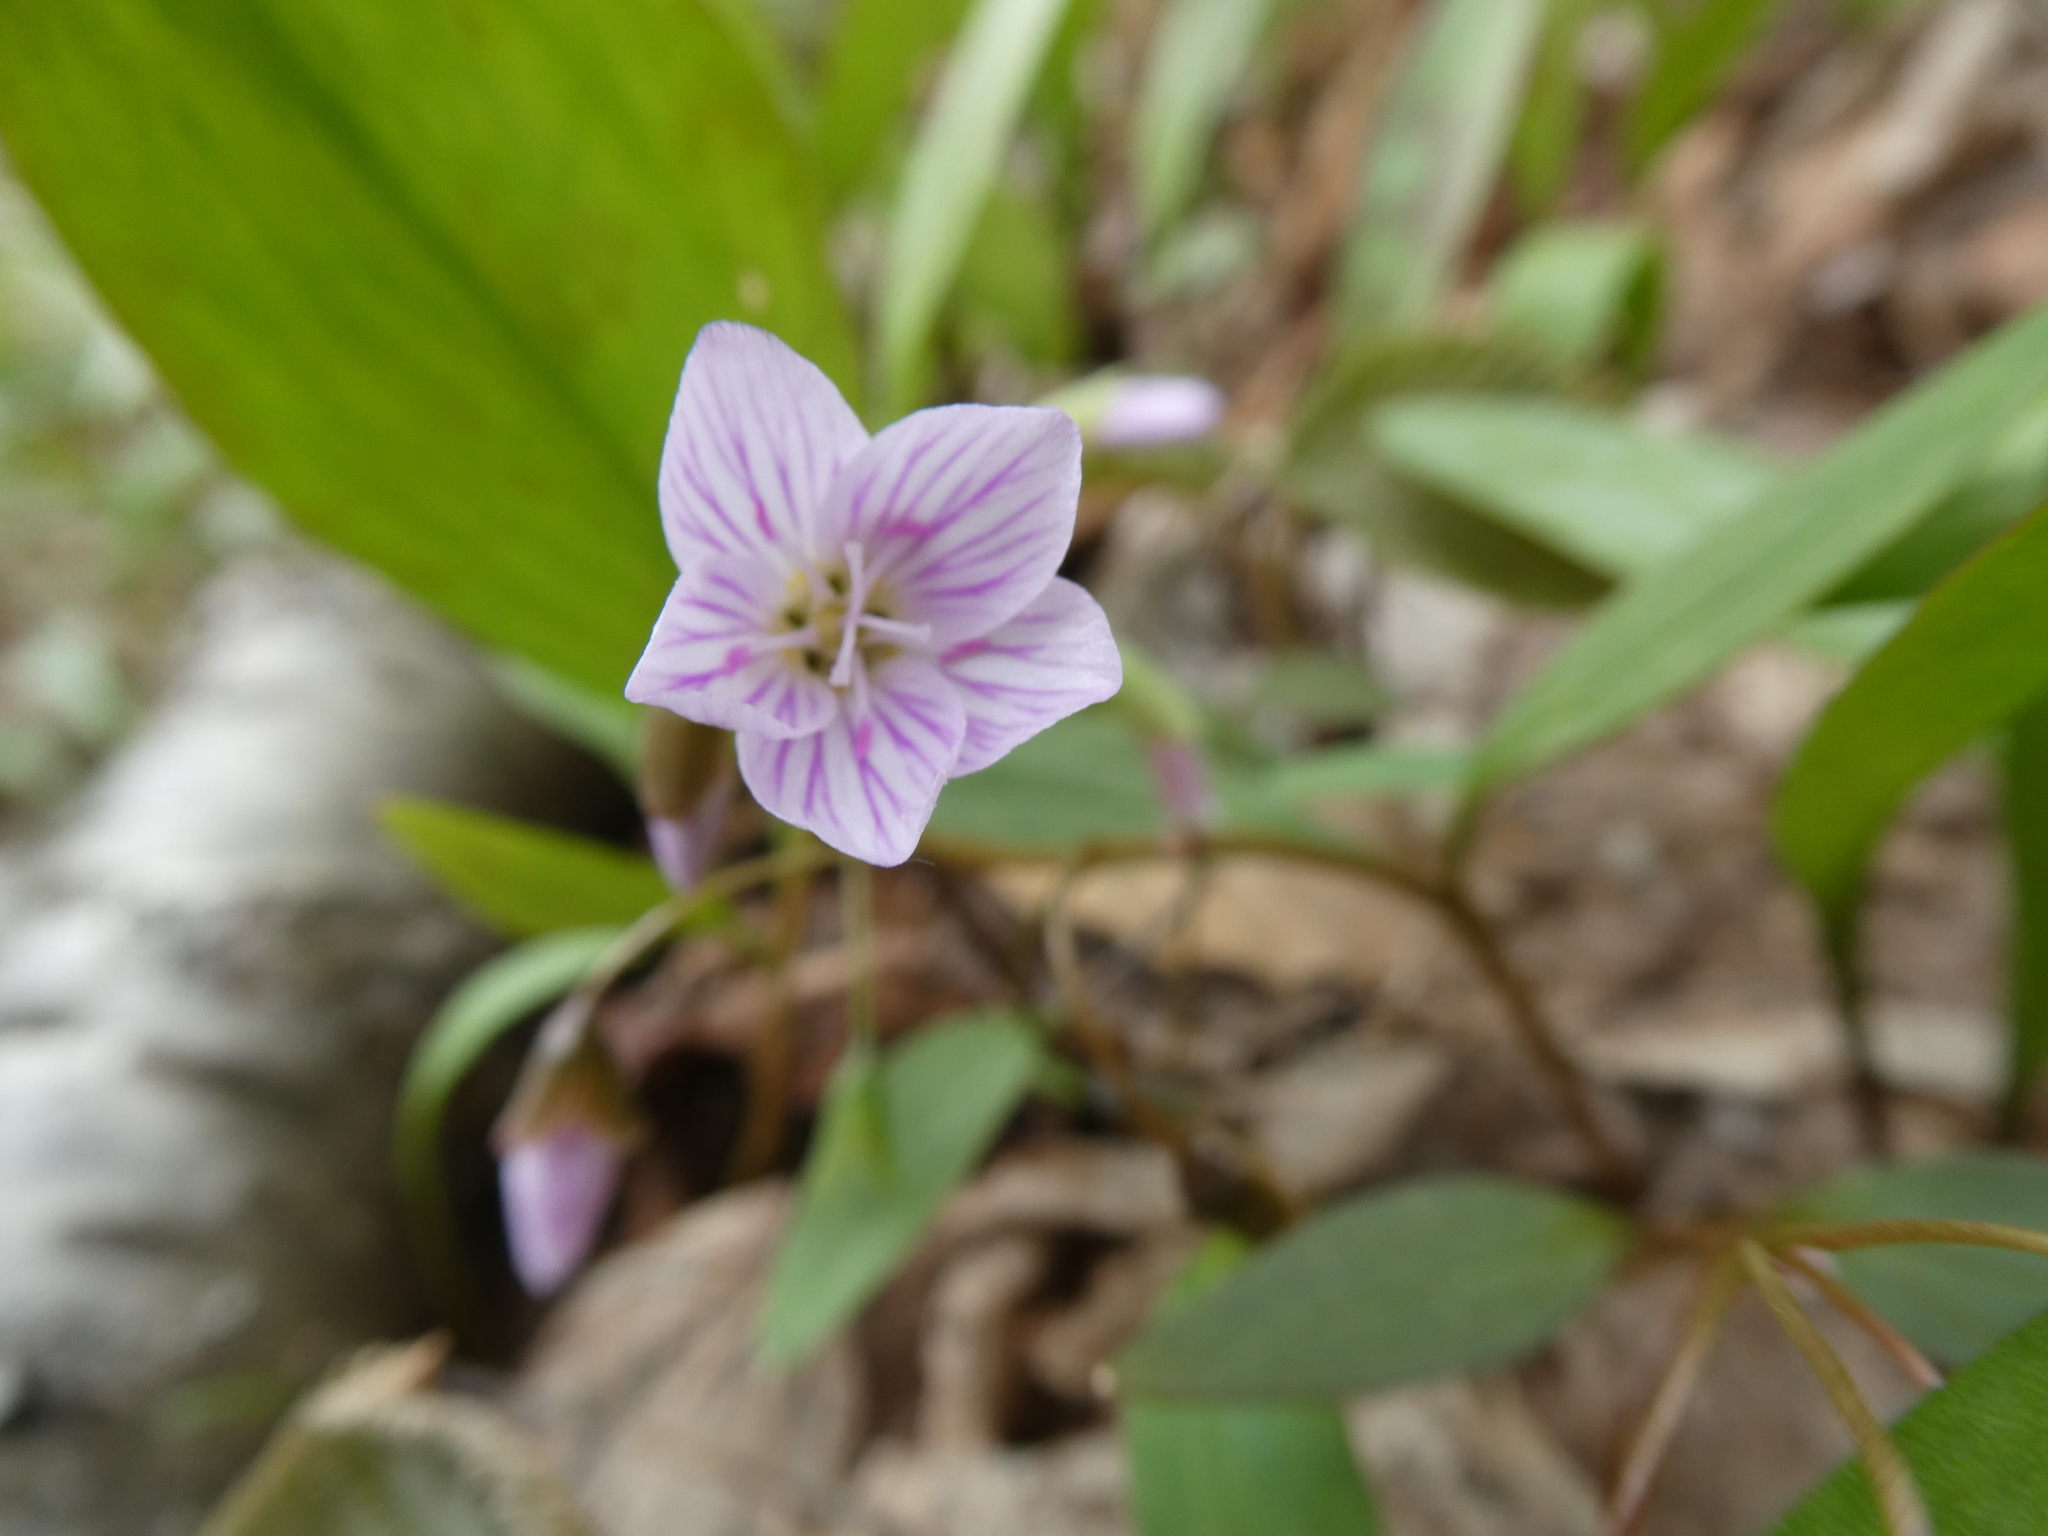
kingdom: Plantae
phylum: Tracheophyta
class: Magnoliopsida
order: Caryophyllales
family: Montiaceae
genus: Claytonia
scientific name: Claytonia caroliniana
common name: Carolina spring beauty
